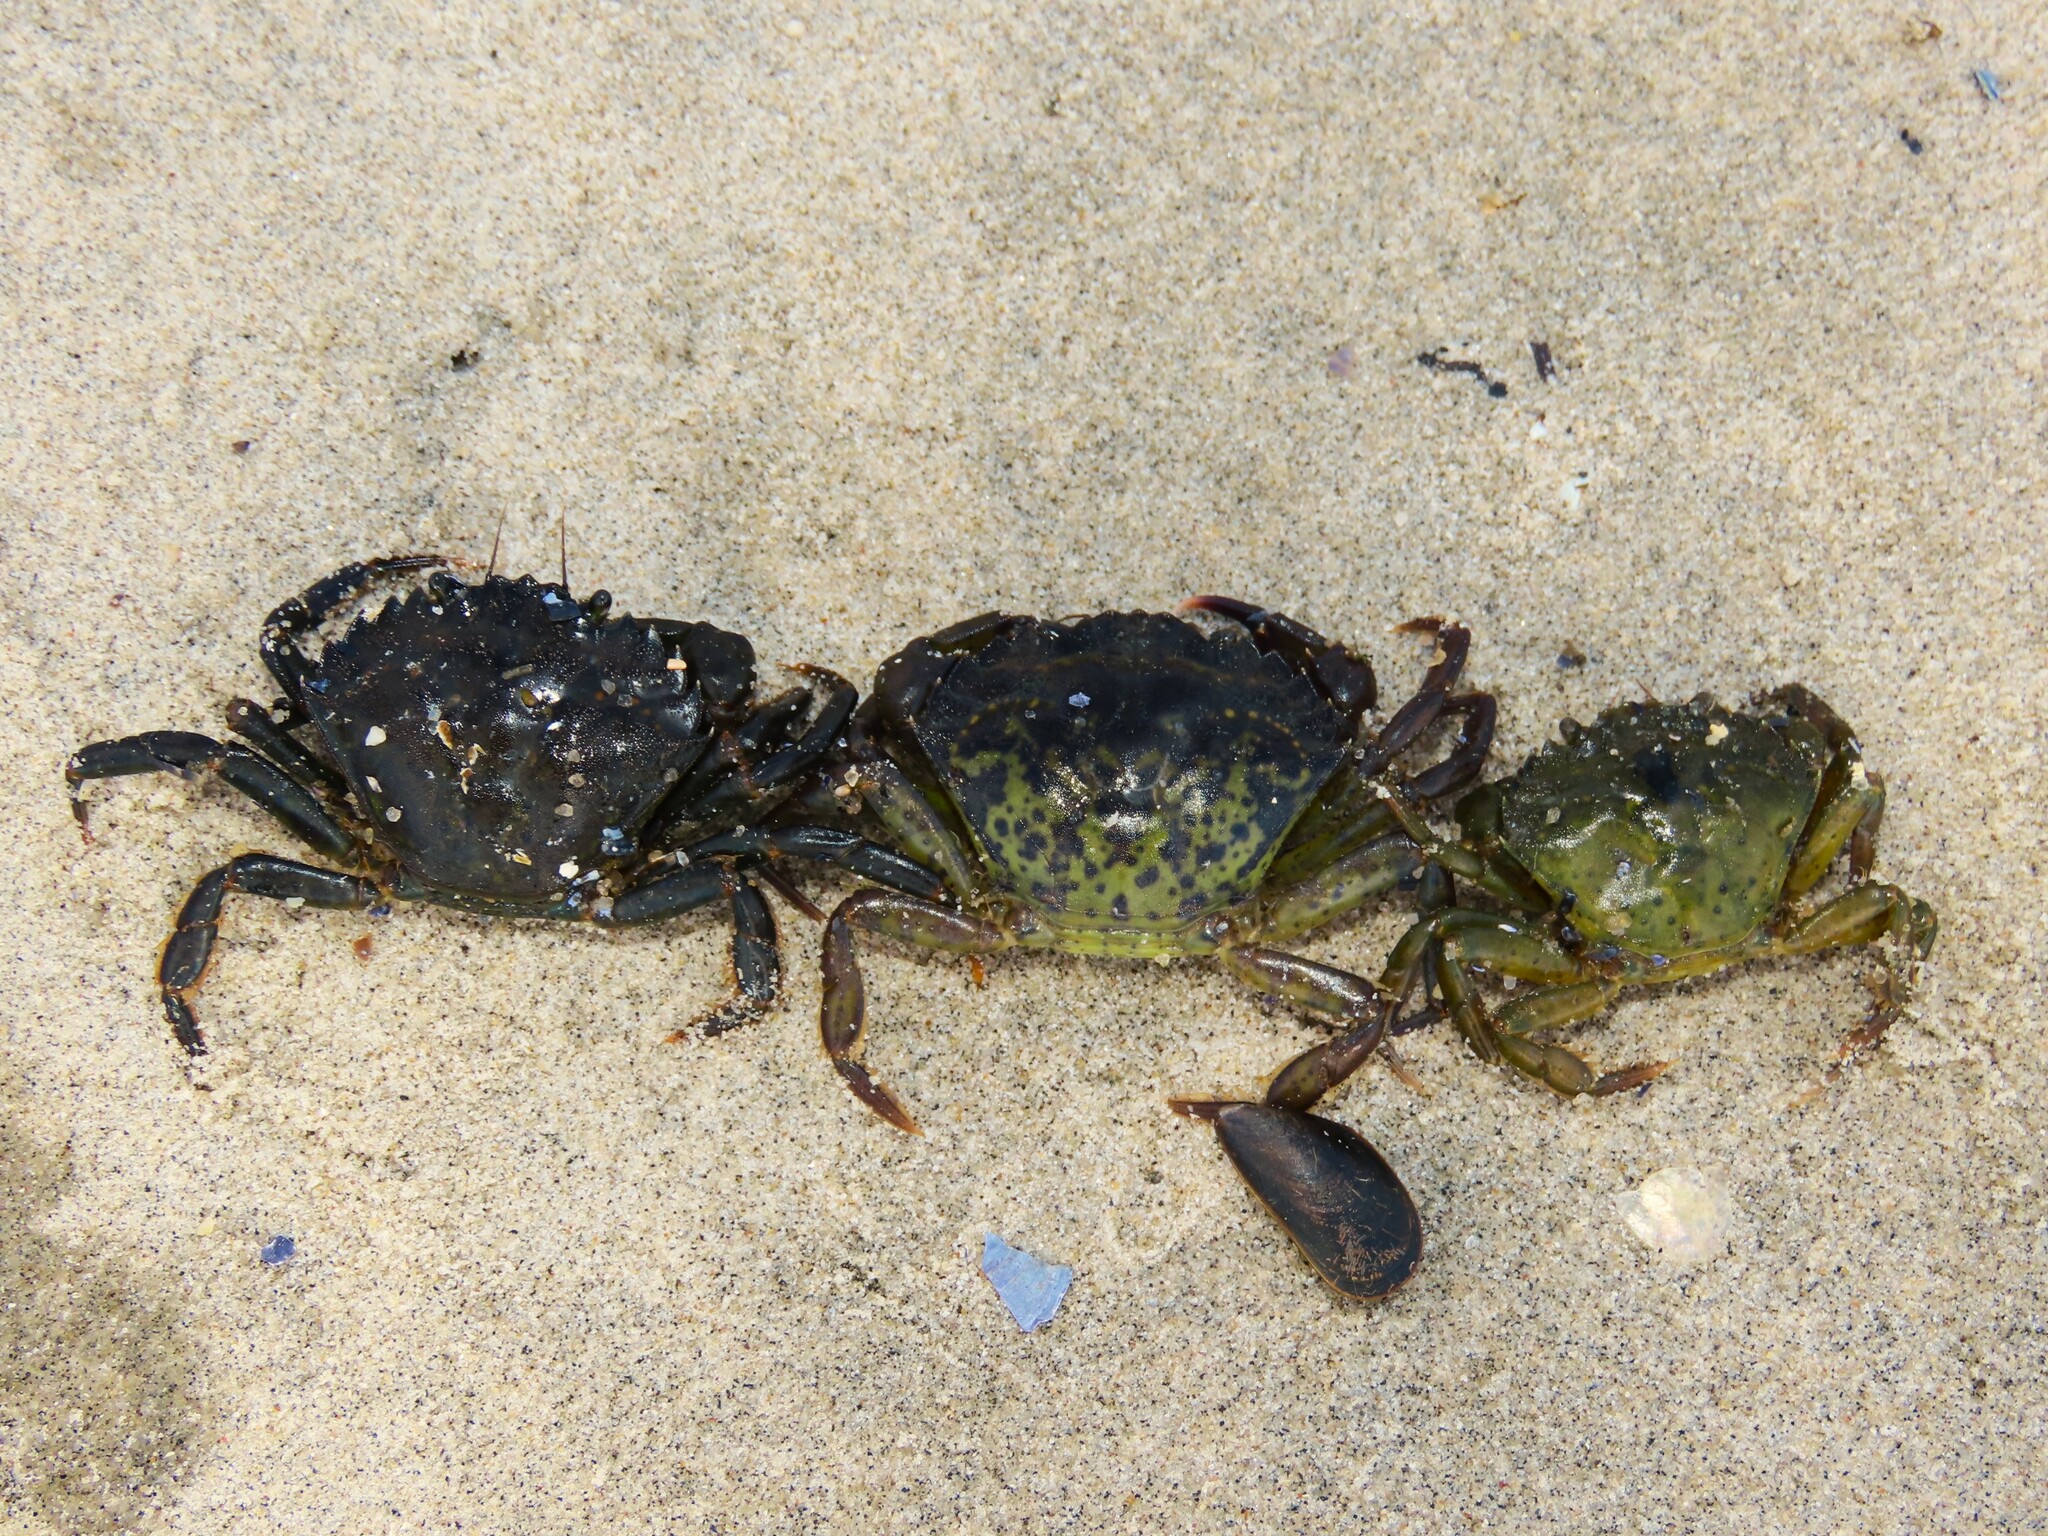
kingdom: Animalia
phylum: Arthropoda
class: Malacostraca
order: Decapoda
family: Carcinidae
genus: Carcinus
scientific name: Carcinus maenas
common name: European green crab
